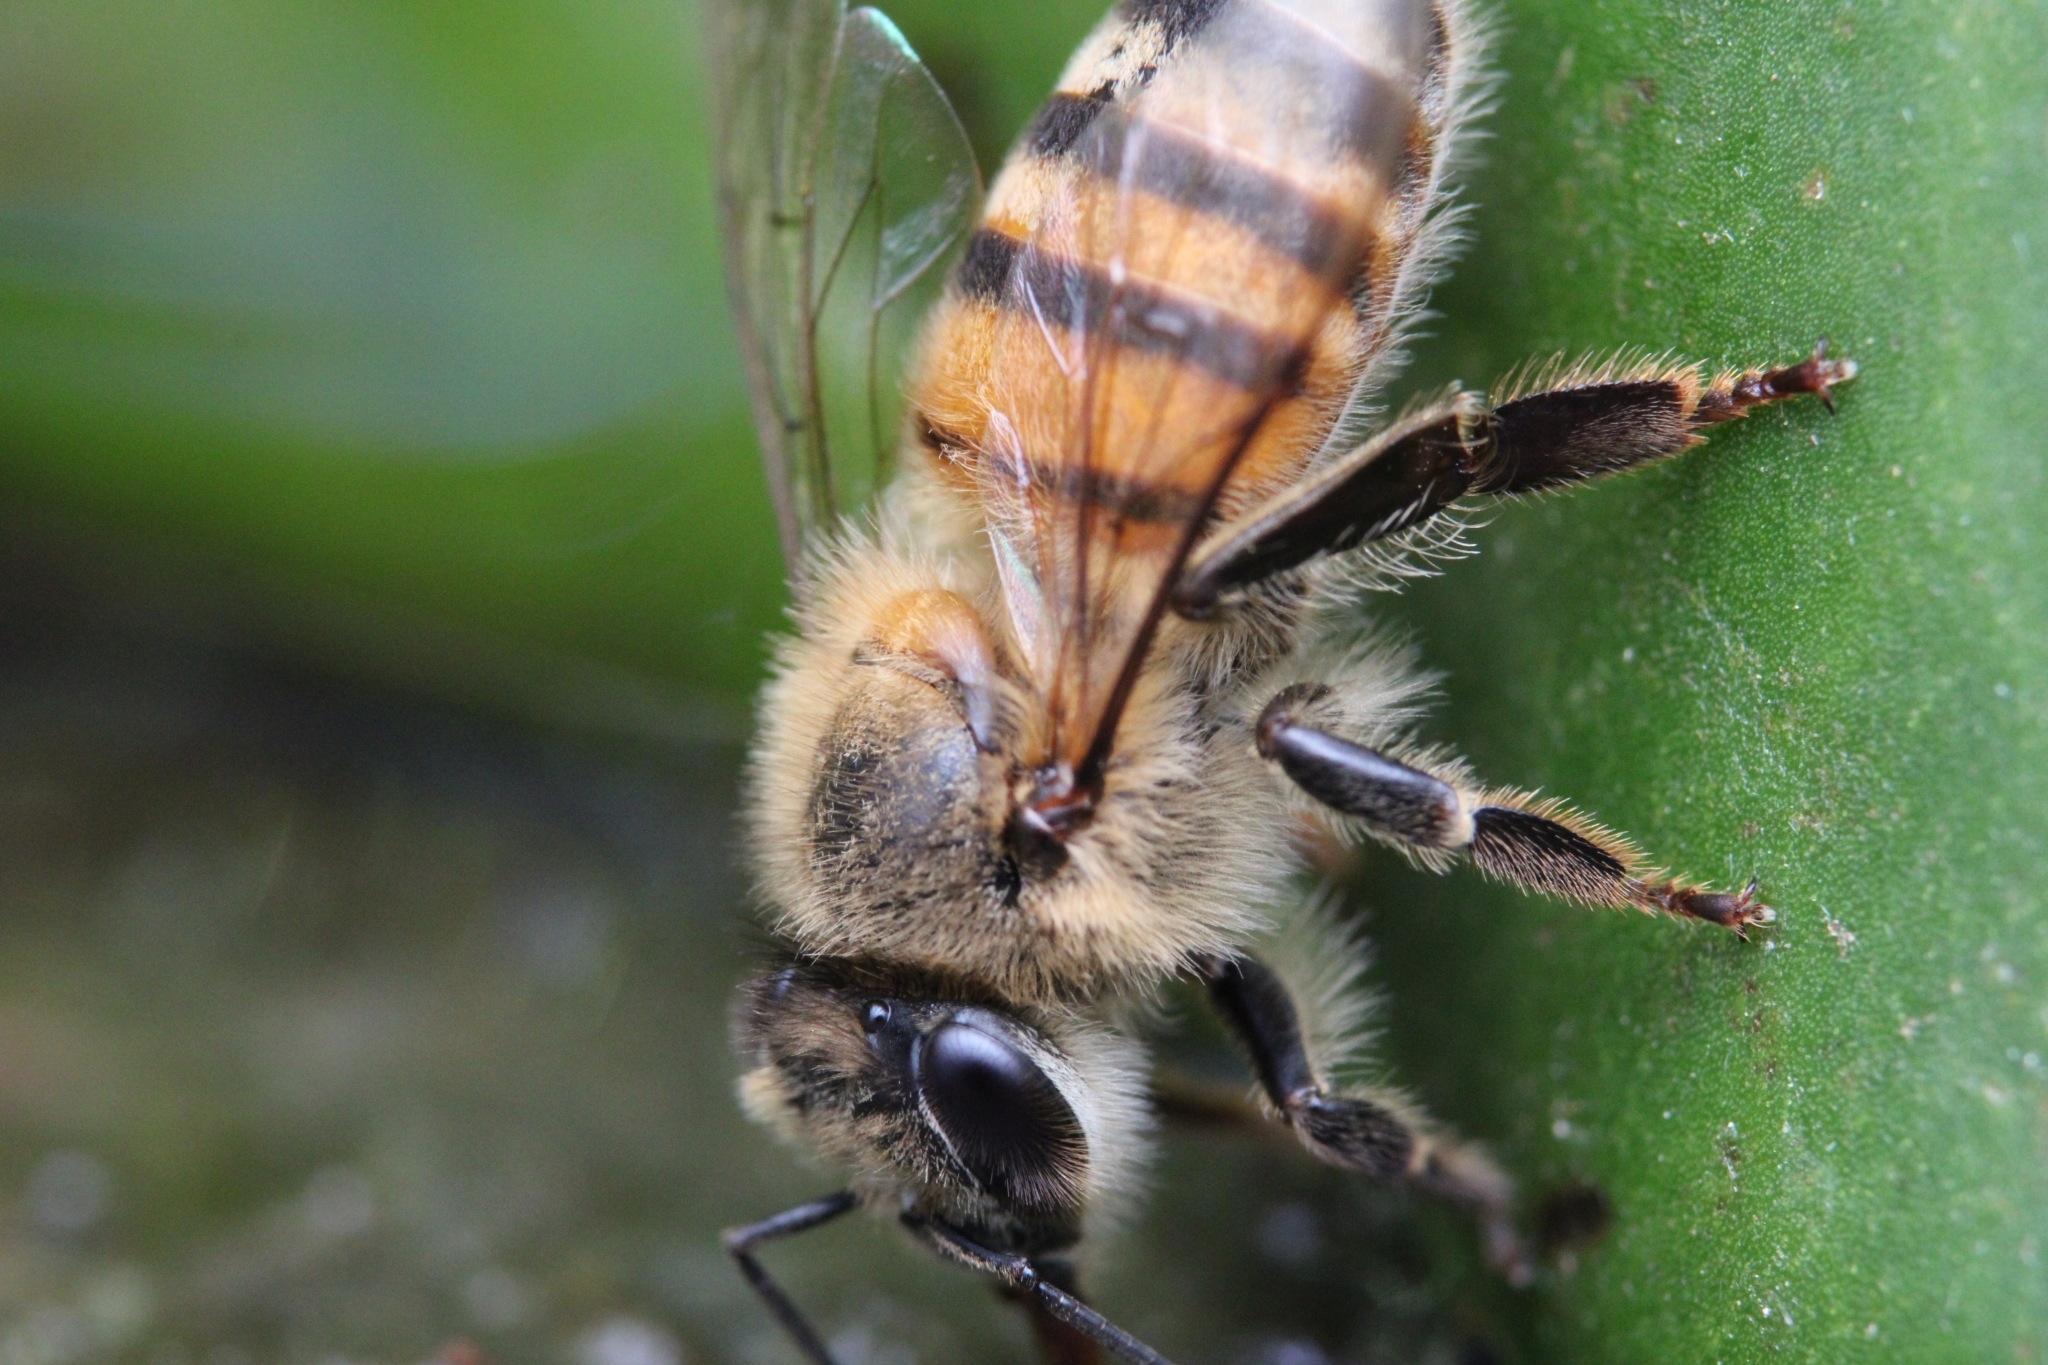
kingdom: Animalia
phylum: Arthropoda
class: Insecta
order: Hymenoptera
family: Apidae
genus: Apis
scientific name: Apis mellifera
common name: Honey bee
